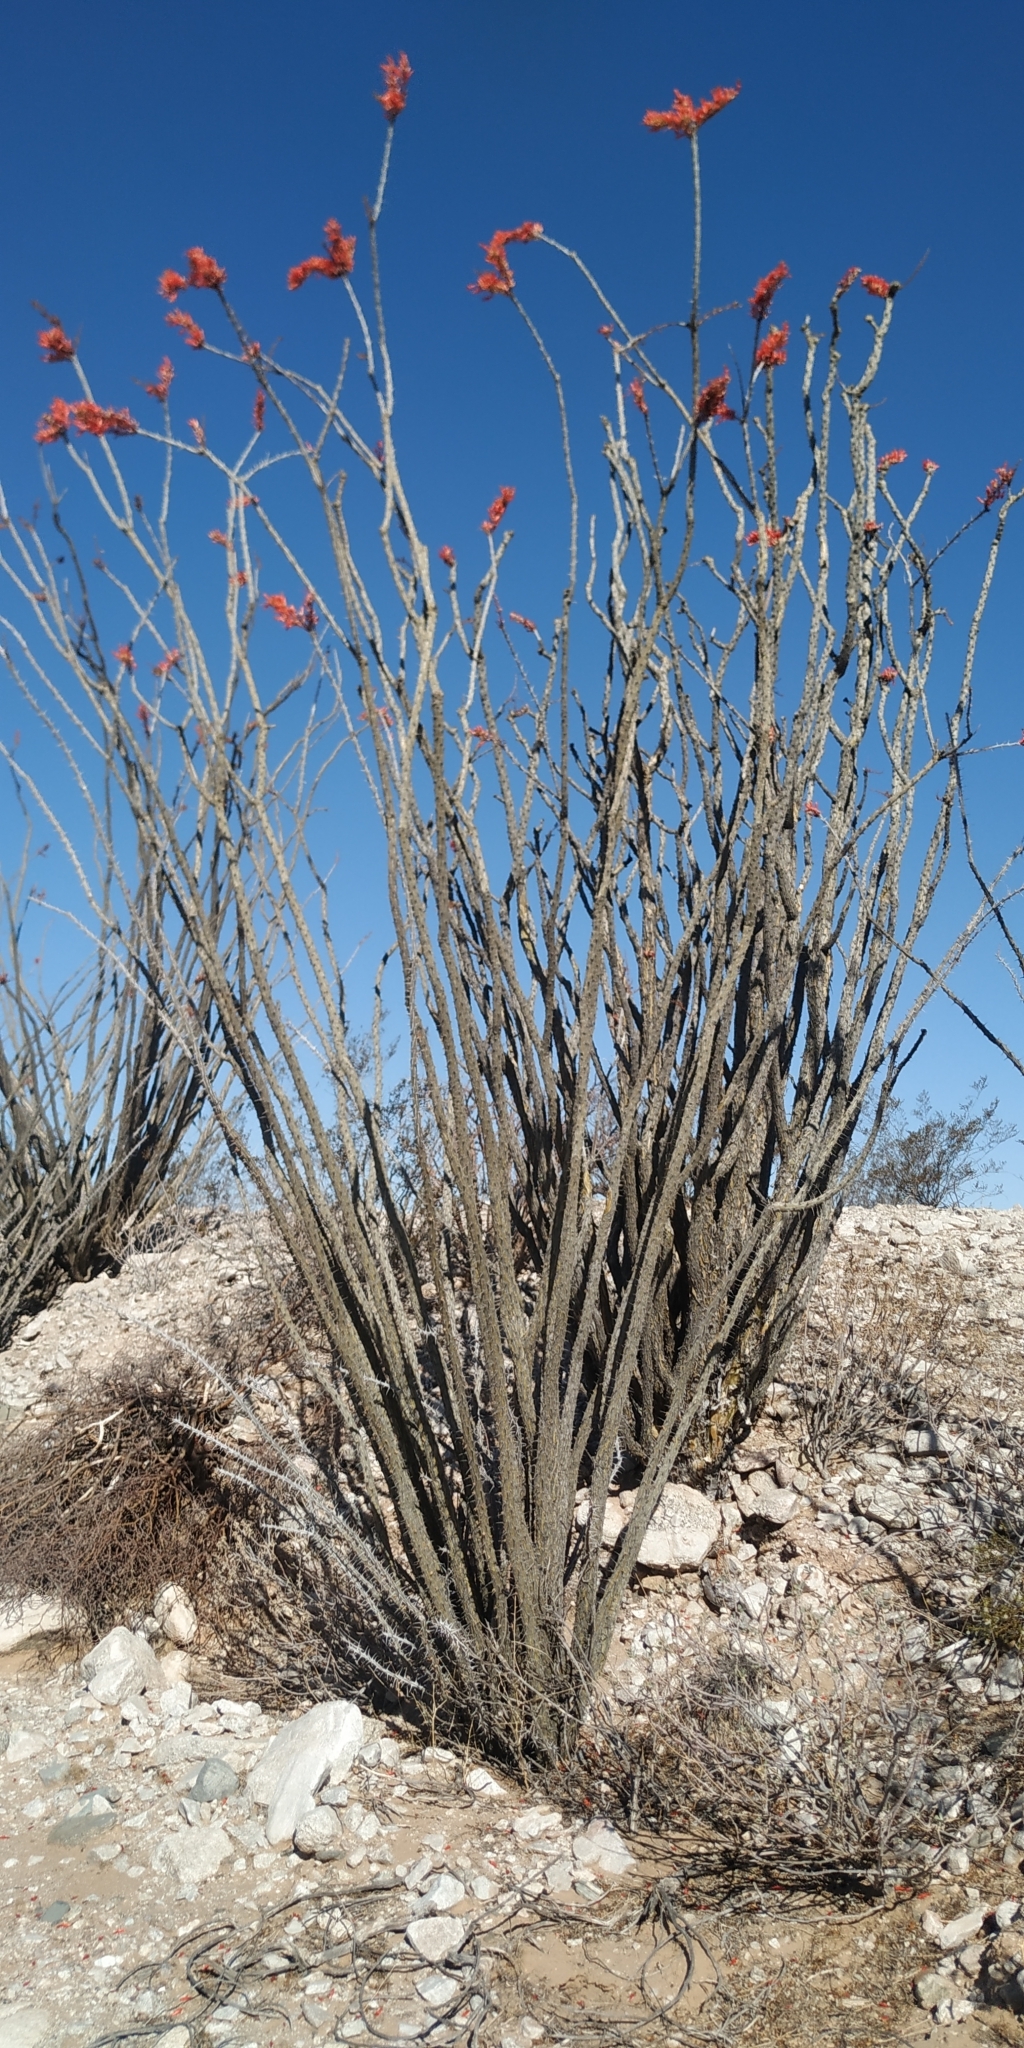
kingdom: Plantae
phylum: Tracheophyta
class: Magnoliopsida
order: Ericales
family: Fouquieriaceae
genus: Fouquieria
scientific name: Fouquieria splendens
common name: Vine-cactus
